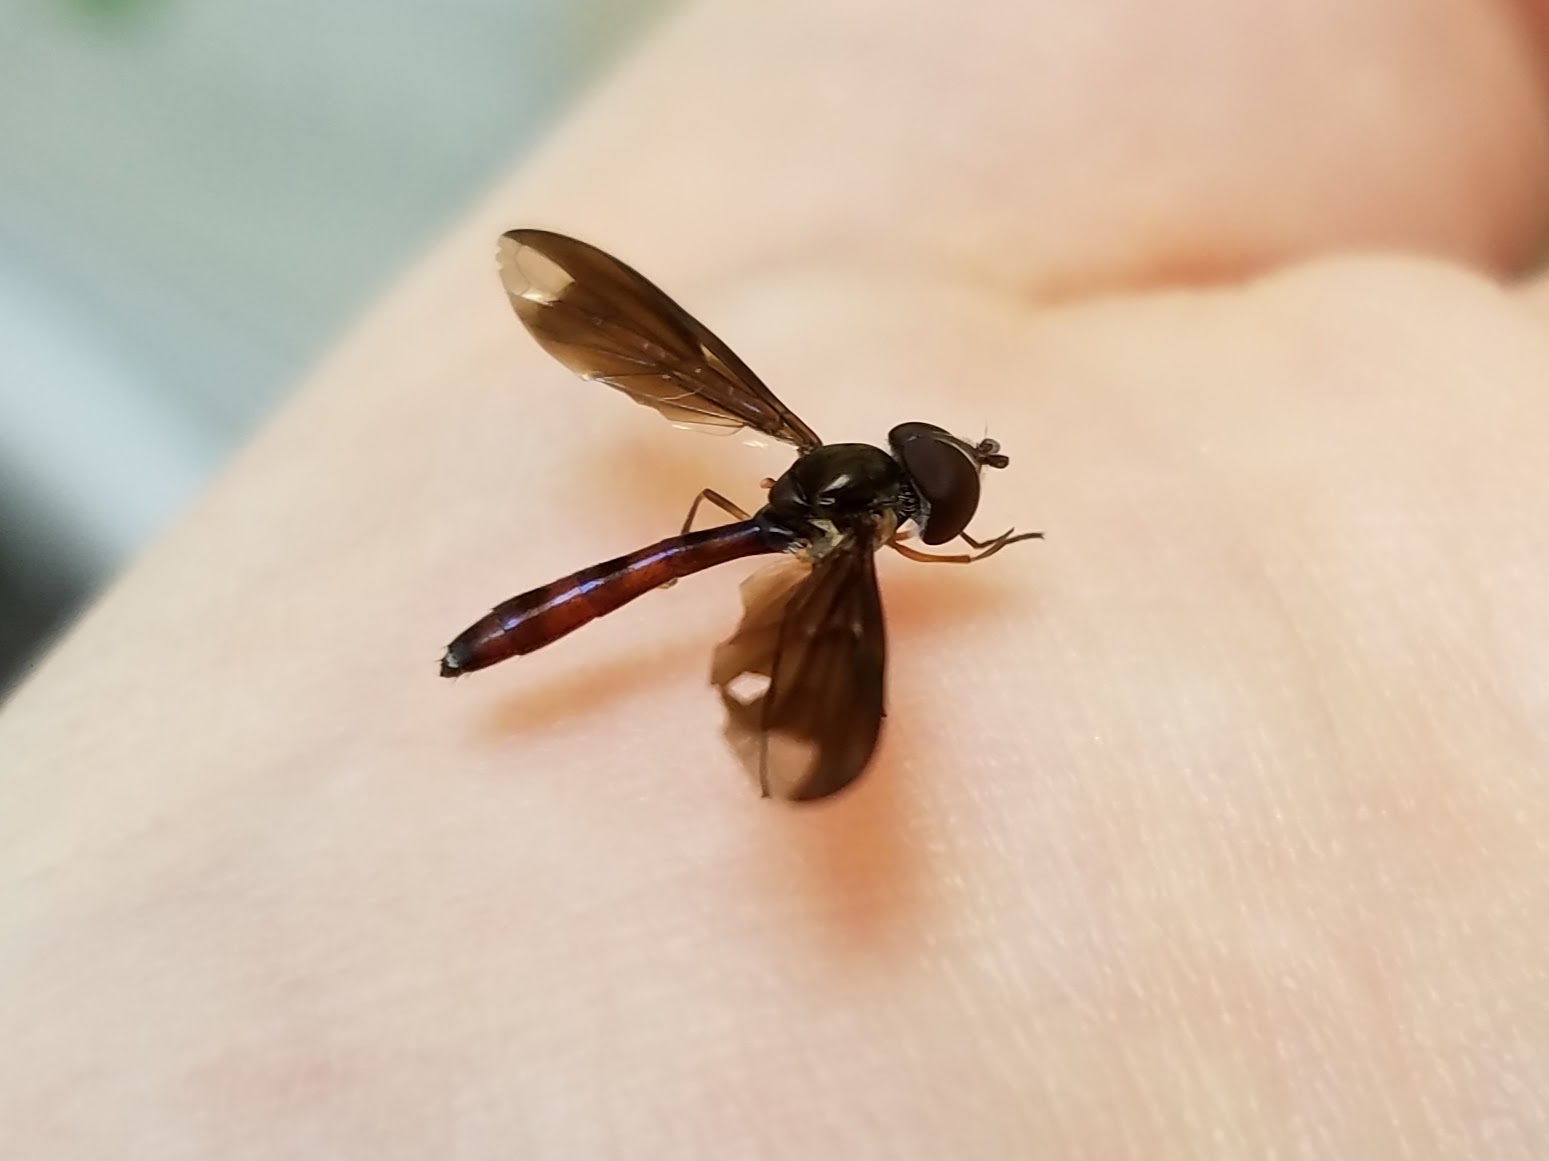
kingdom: Animalia
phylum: Arthropoda
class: Insecta
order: Diptera
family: Syrphidae
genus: Ocyptamus
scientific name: Ocyptamus fuscipennis
